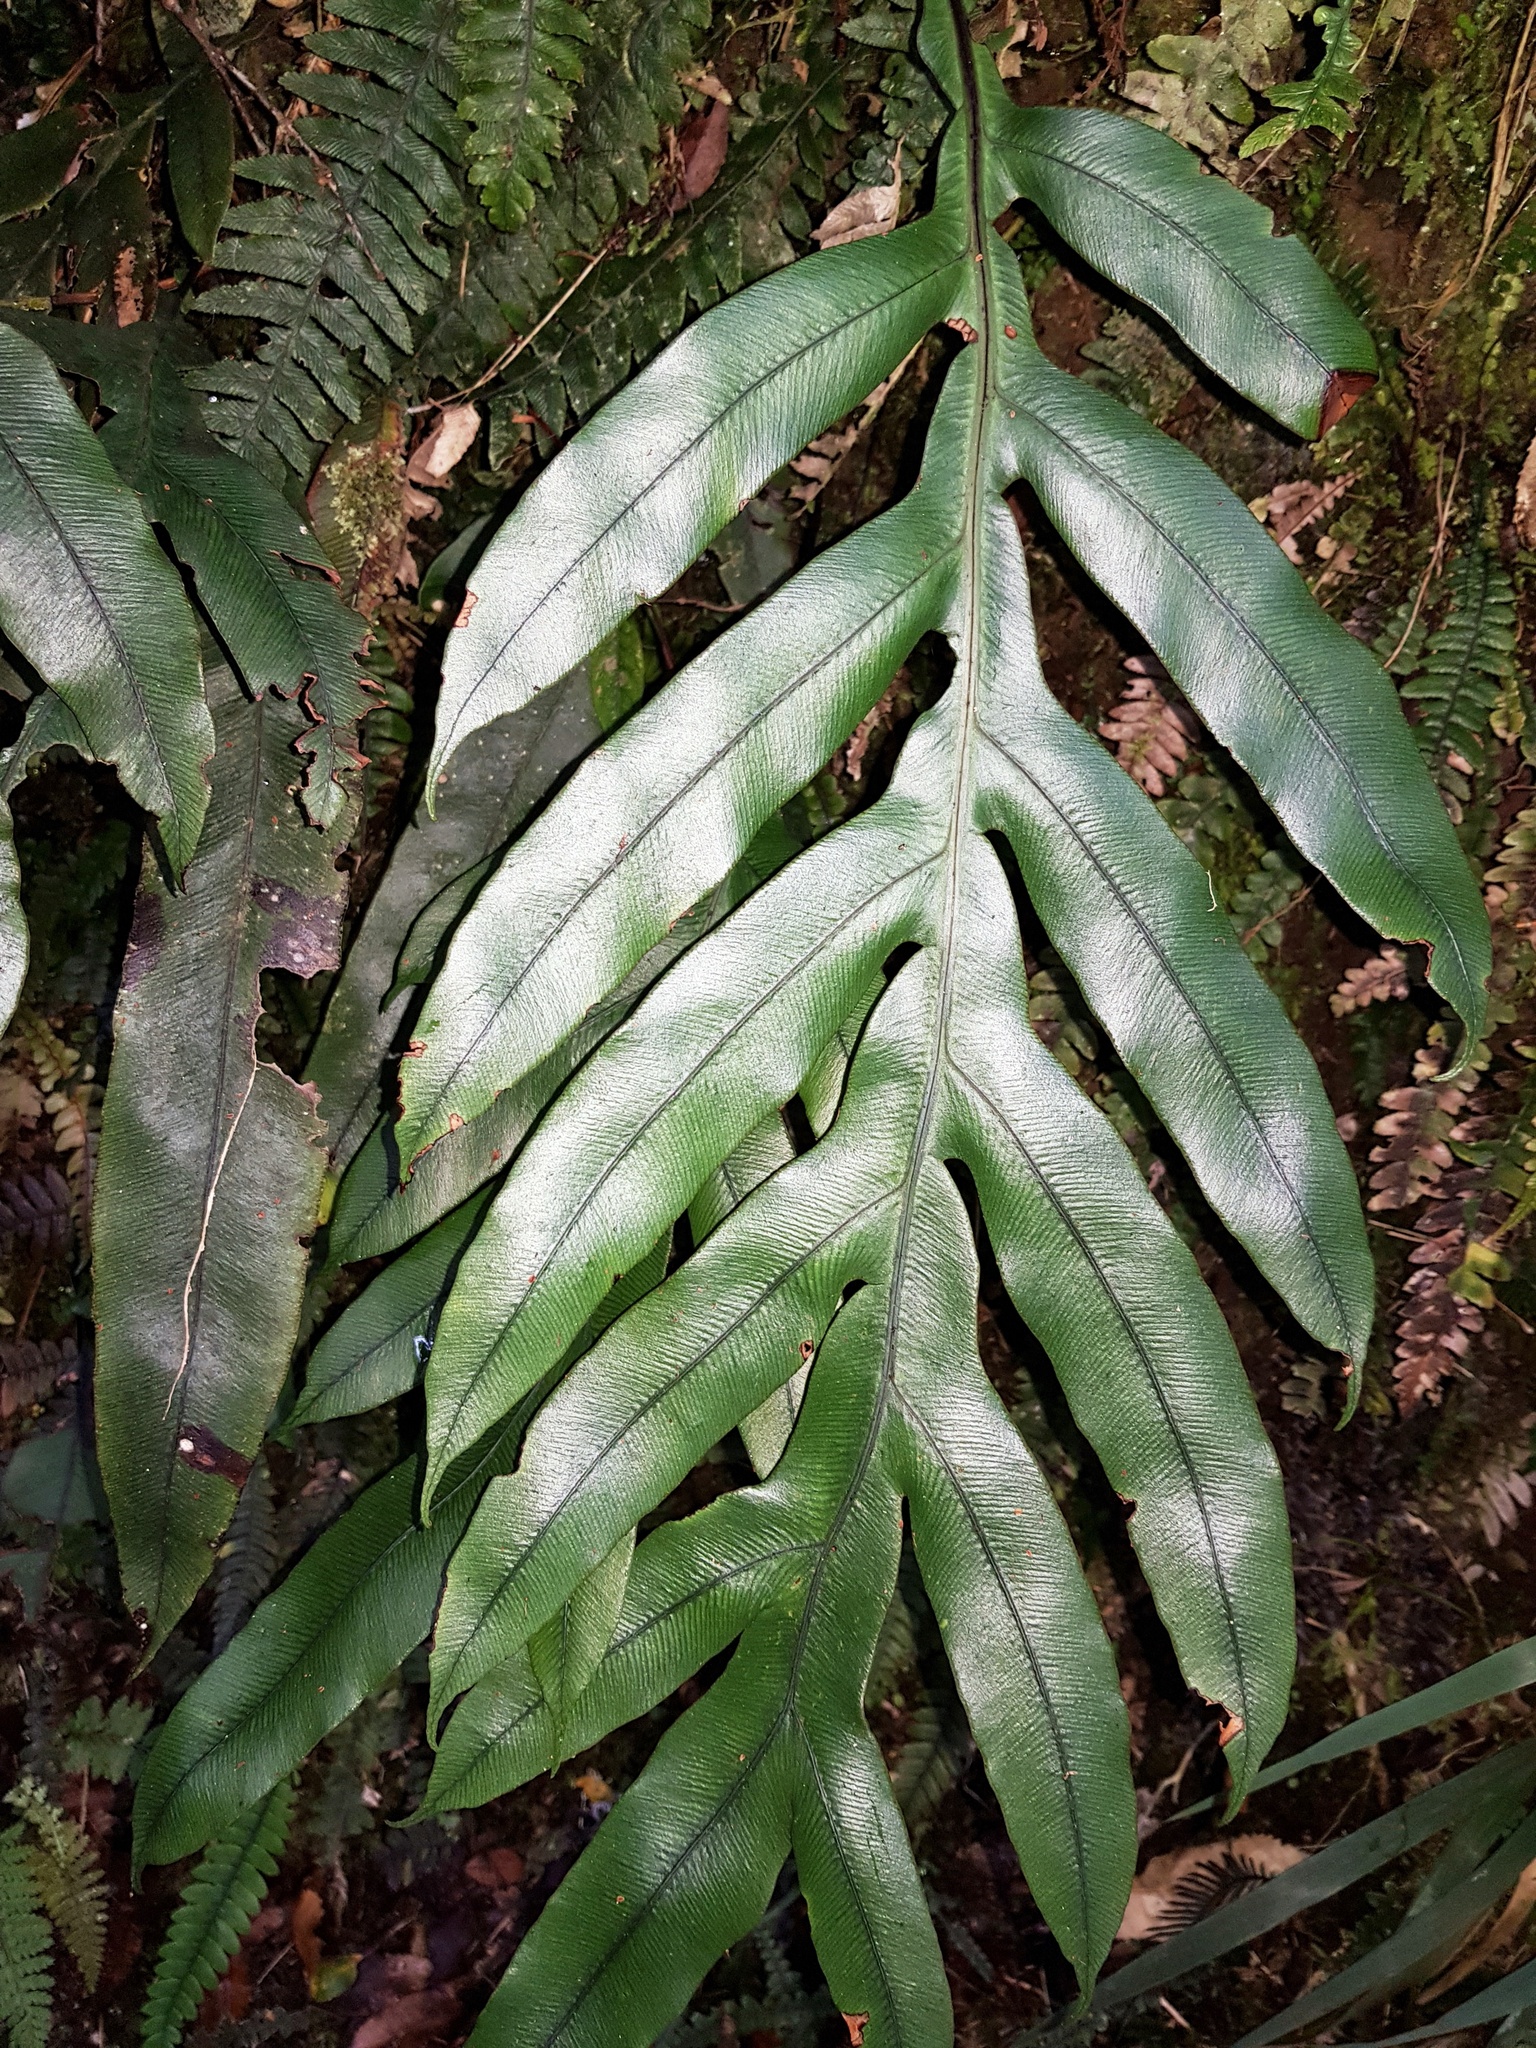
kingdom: Plantae
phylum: Tracheophyta
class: Polypodiopsida
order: Polypodiales
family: Blechnaceae
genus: Austroblechnum
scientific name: Austroblechnum colensoi
